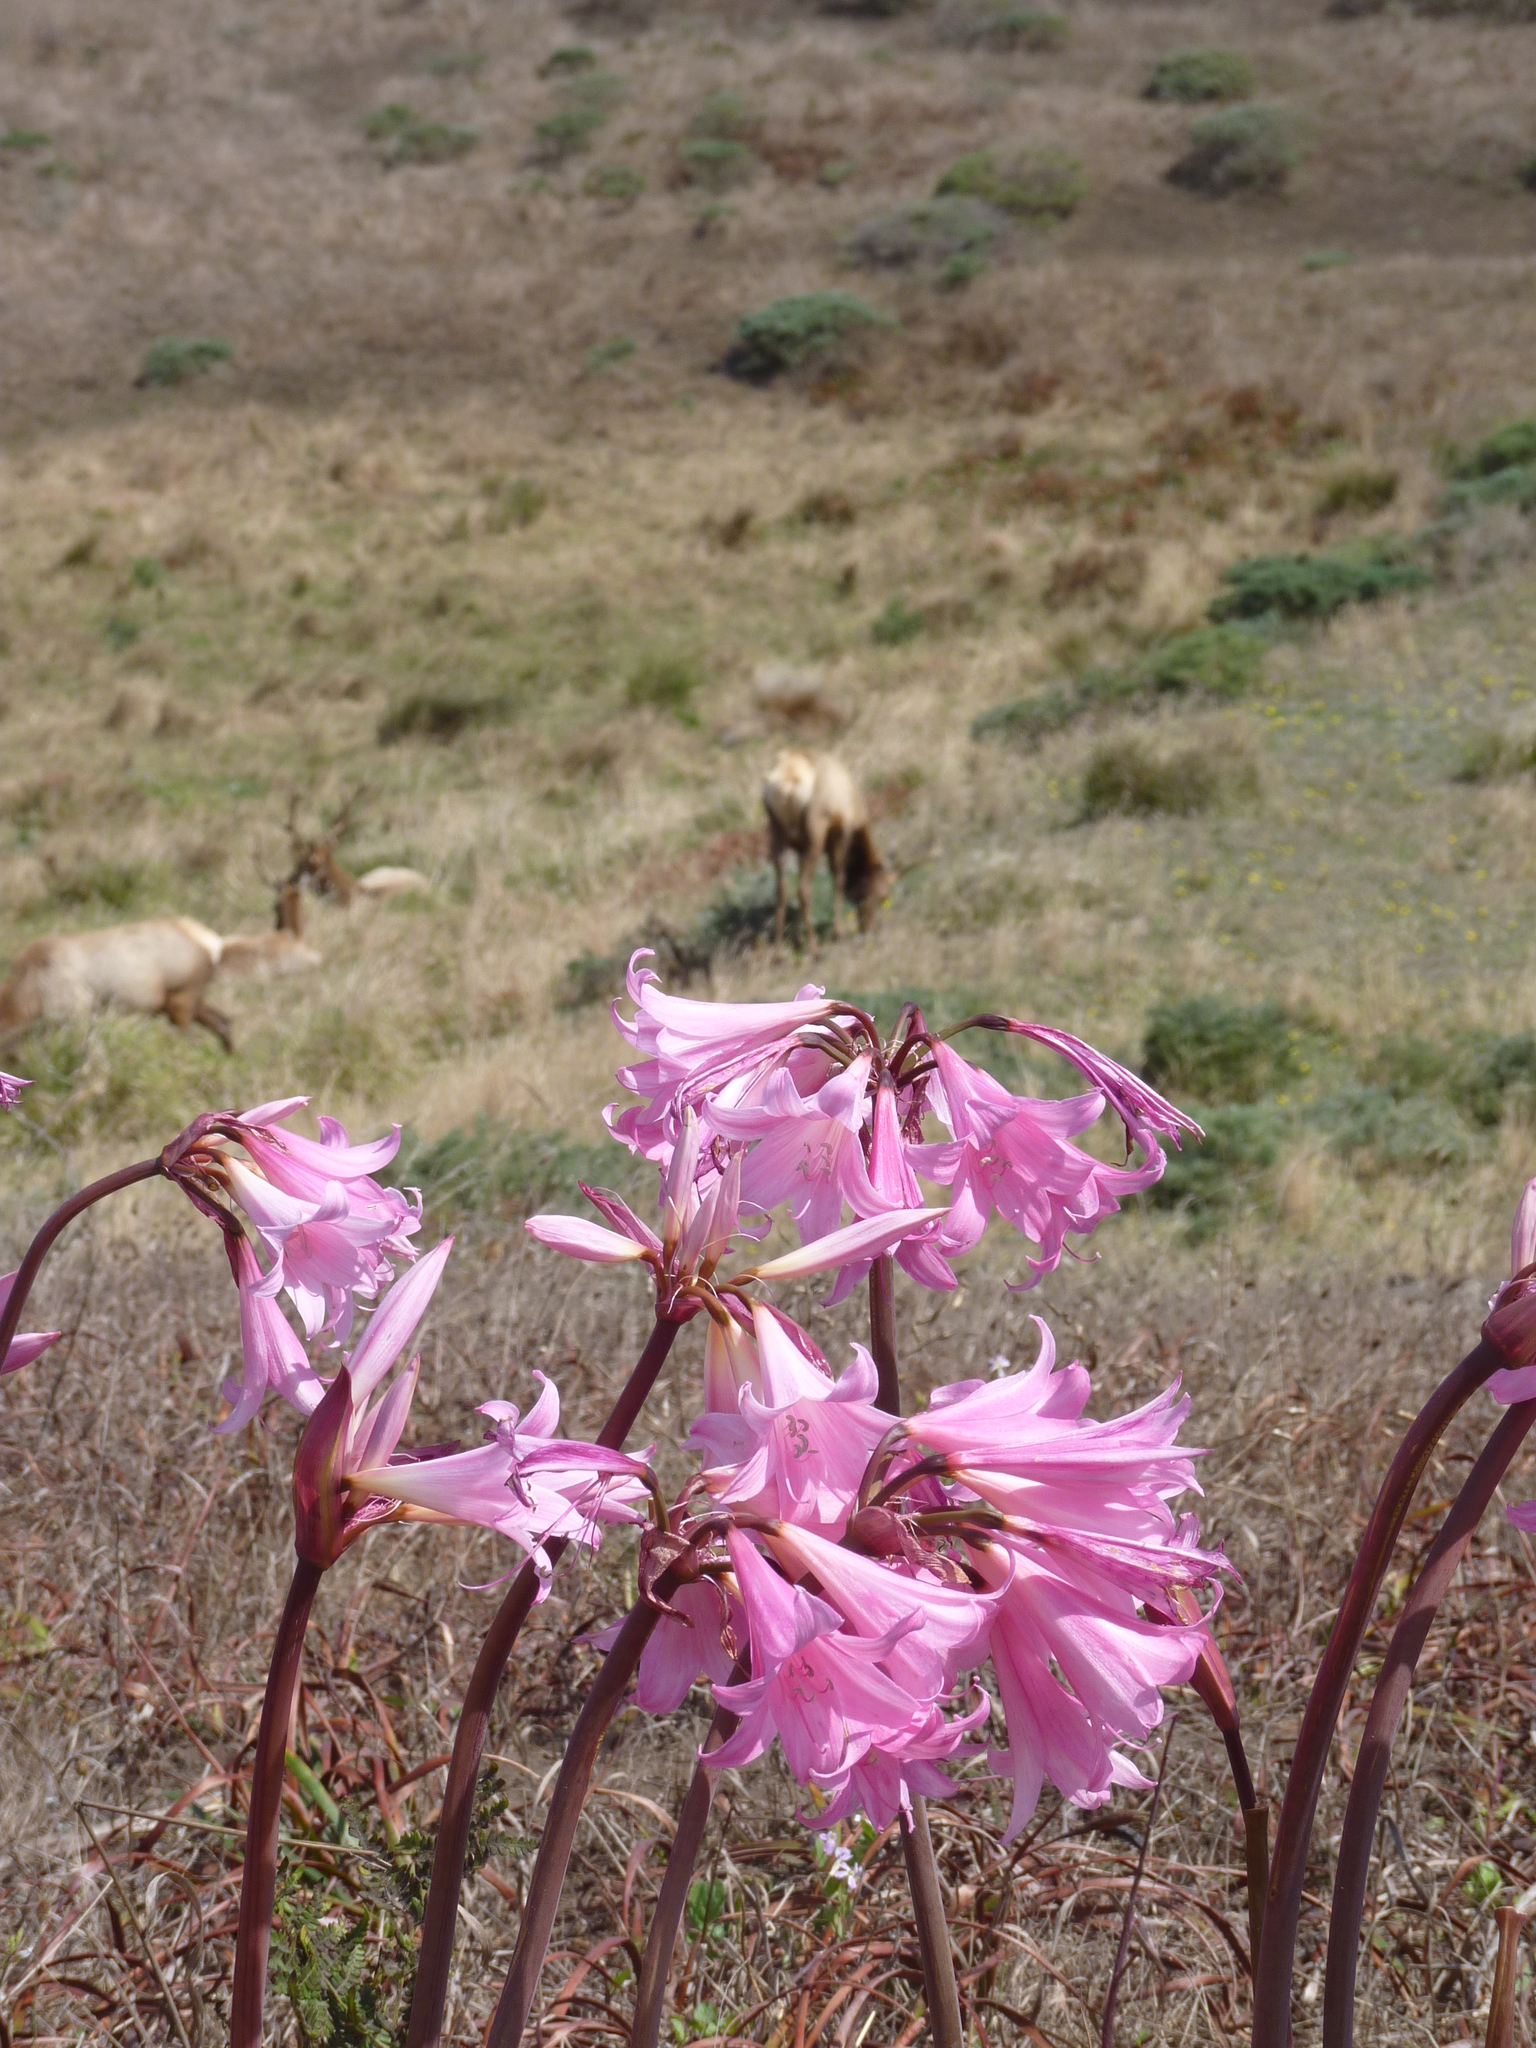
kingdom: Plantae
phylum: Tracheophyta
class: Liliopsida
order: Asparagales
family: Amaryllidaceae
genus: Amaryllis
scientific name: Amaryllis belladonna
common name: Jersey lily
